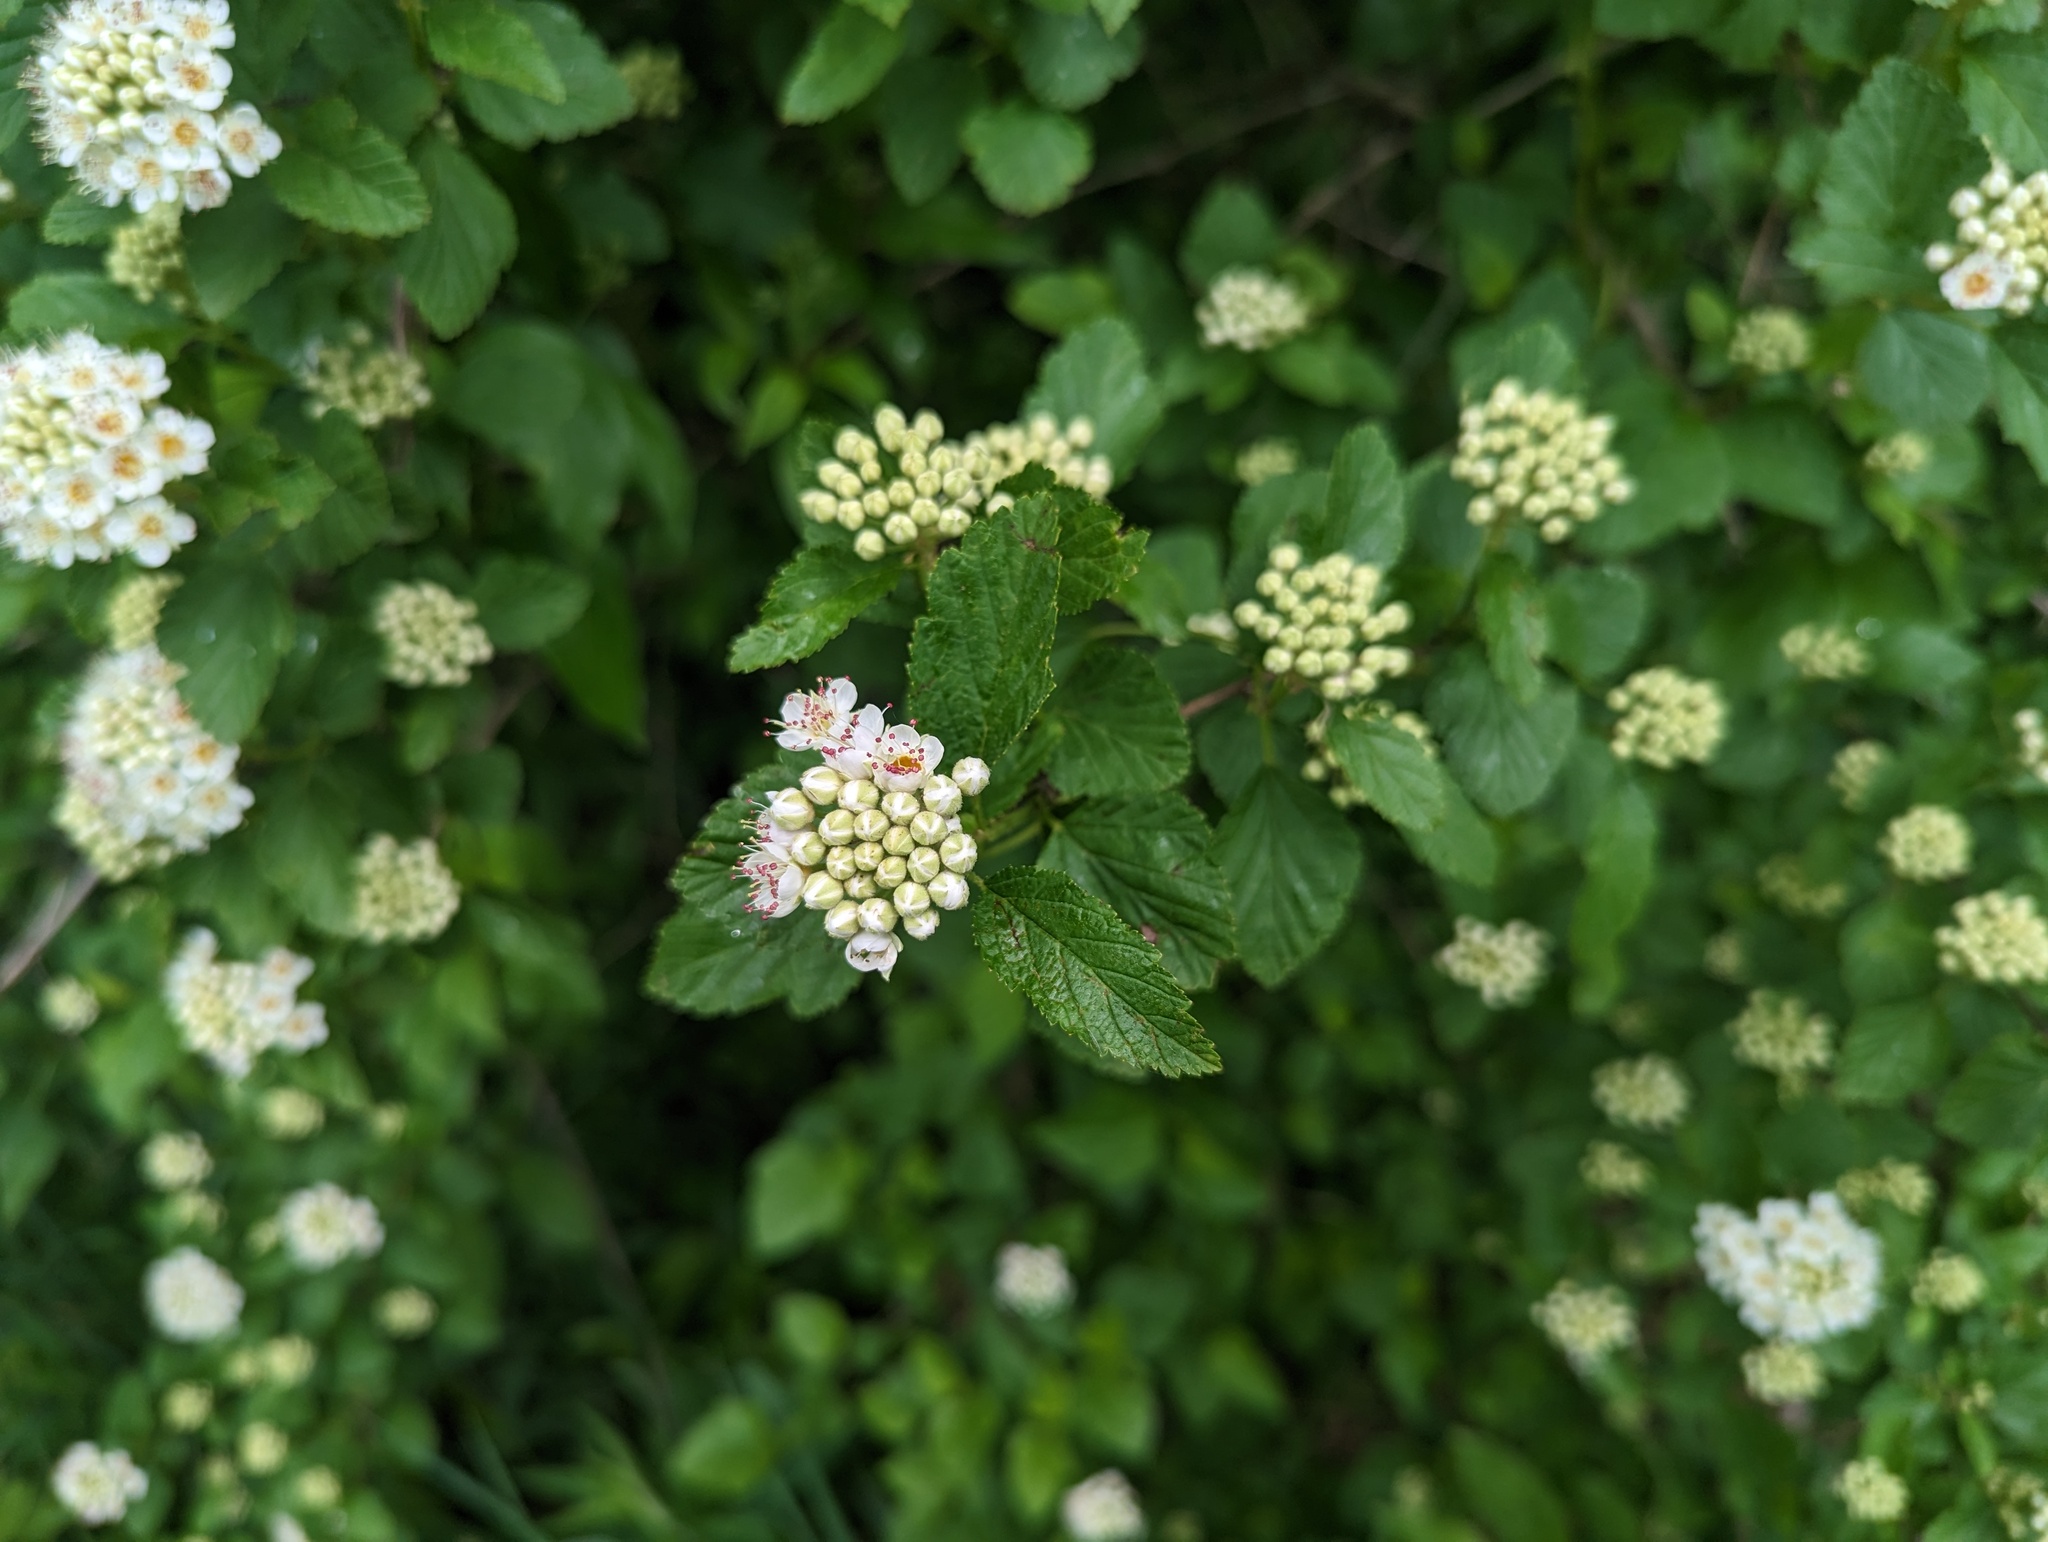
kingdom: Plantae
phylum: Tracheophyta
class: Magnoliopsida
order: Rosales
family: Rosaceae
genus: Physocarpus
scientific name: Physocarpus opulifolius
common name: Ninebark
